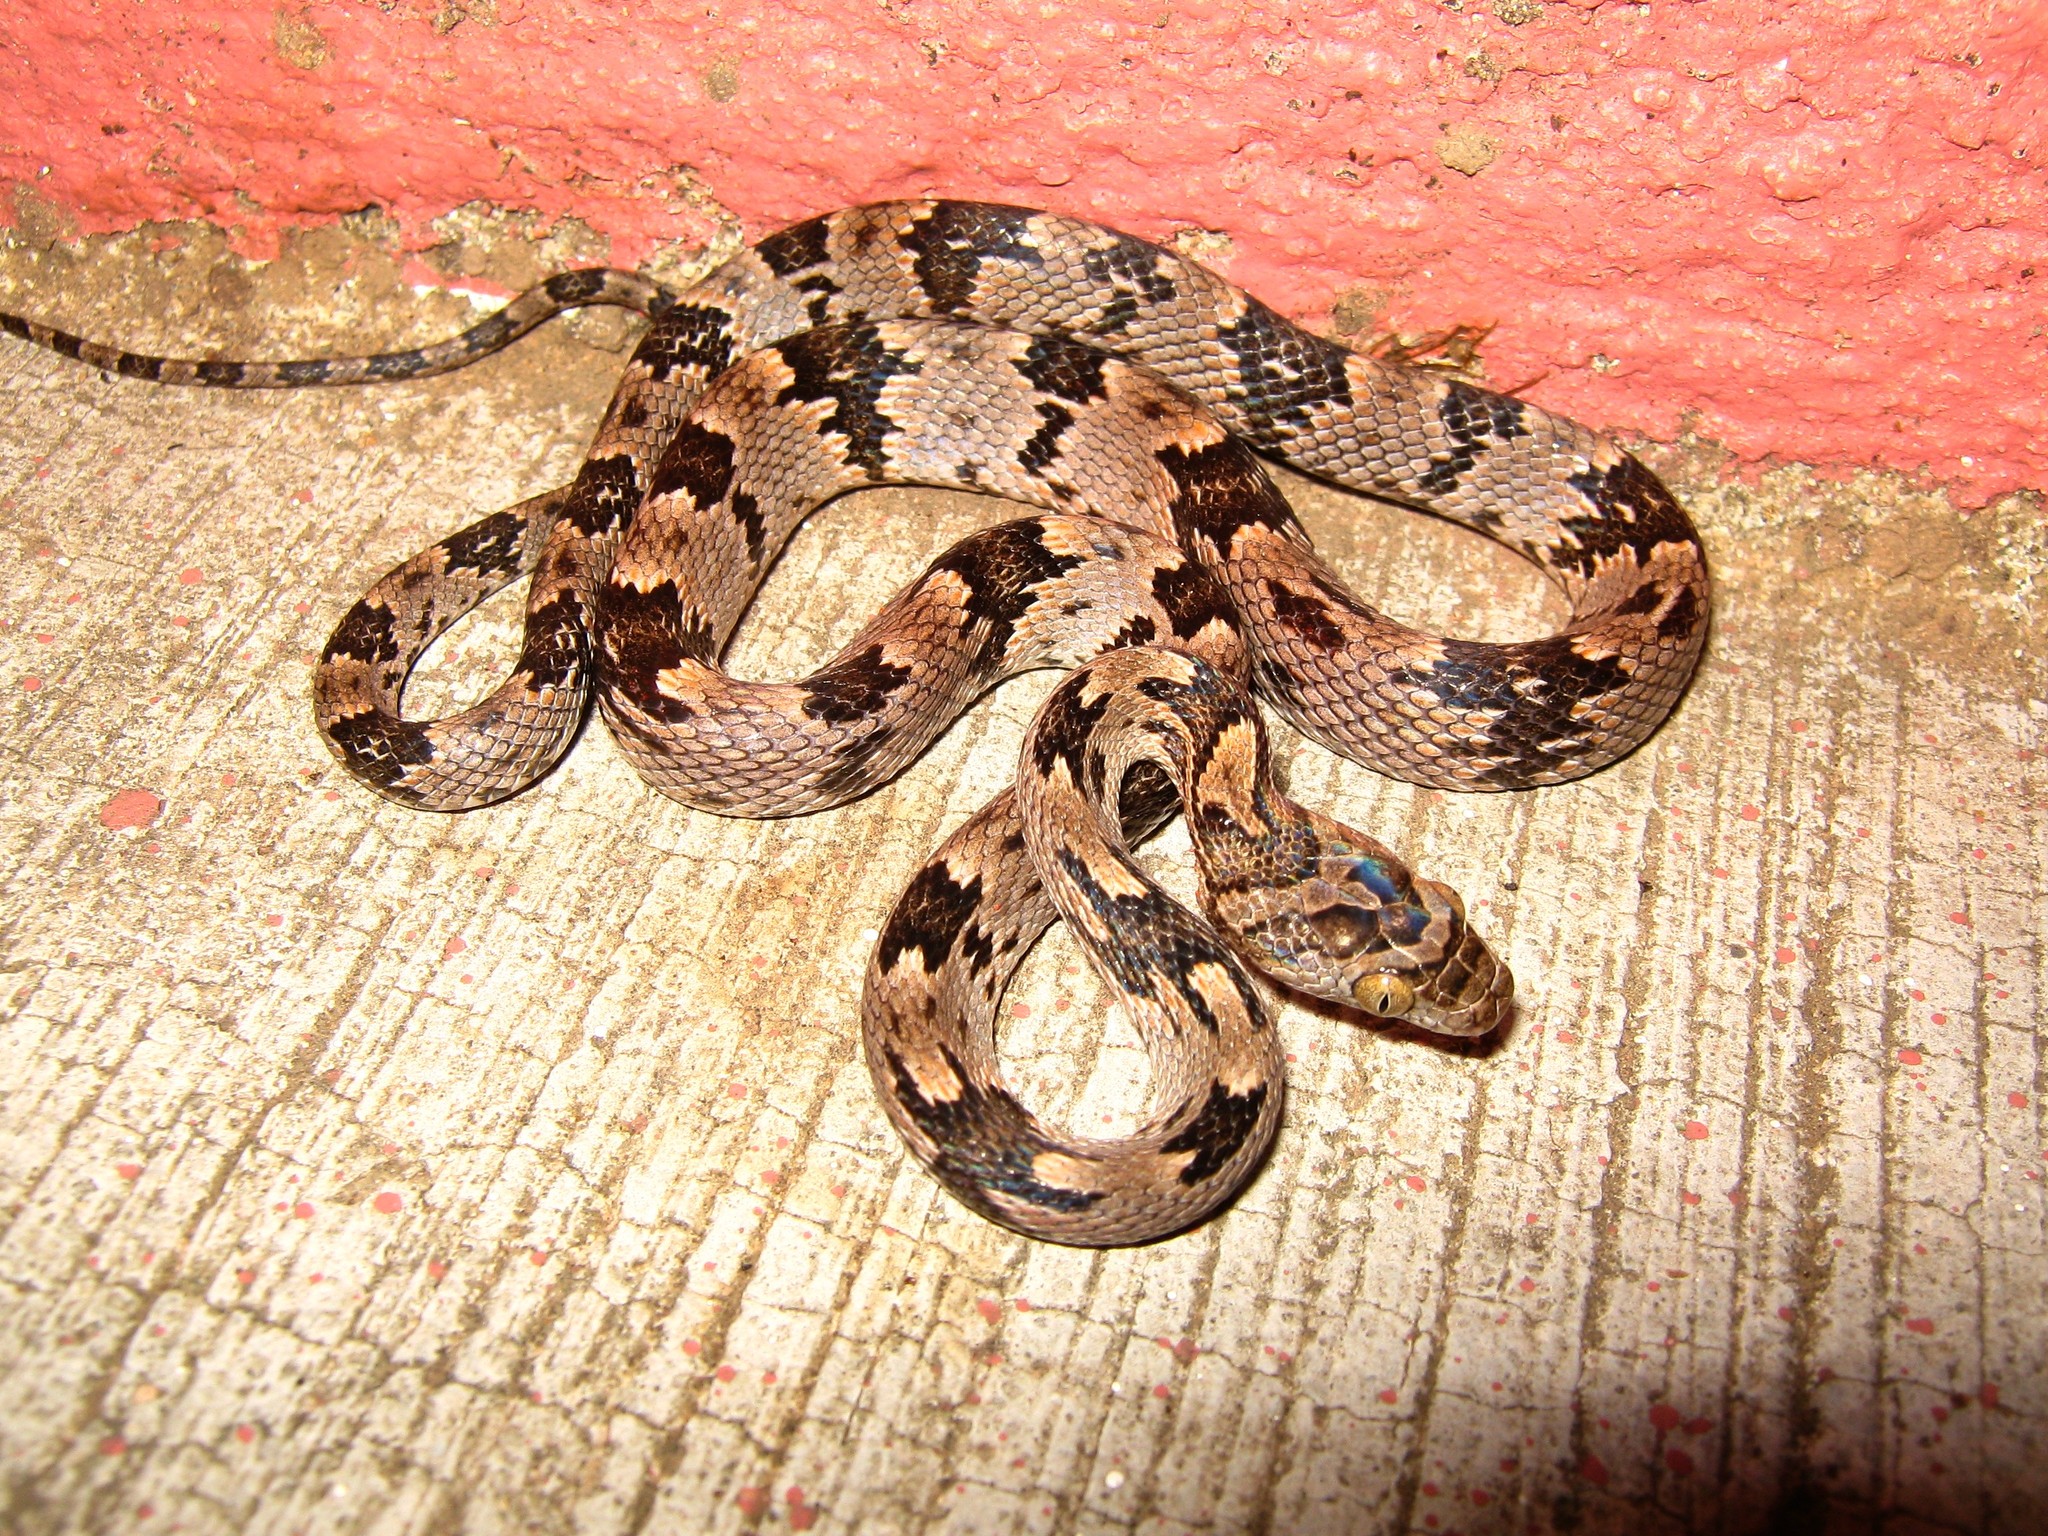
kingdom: Animalia
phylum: Chordata
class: Squamata
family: Colubridae
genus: Trimorphodon
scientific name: Trimorphodon biscutatus
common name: Costal lyre snake
